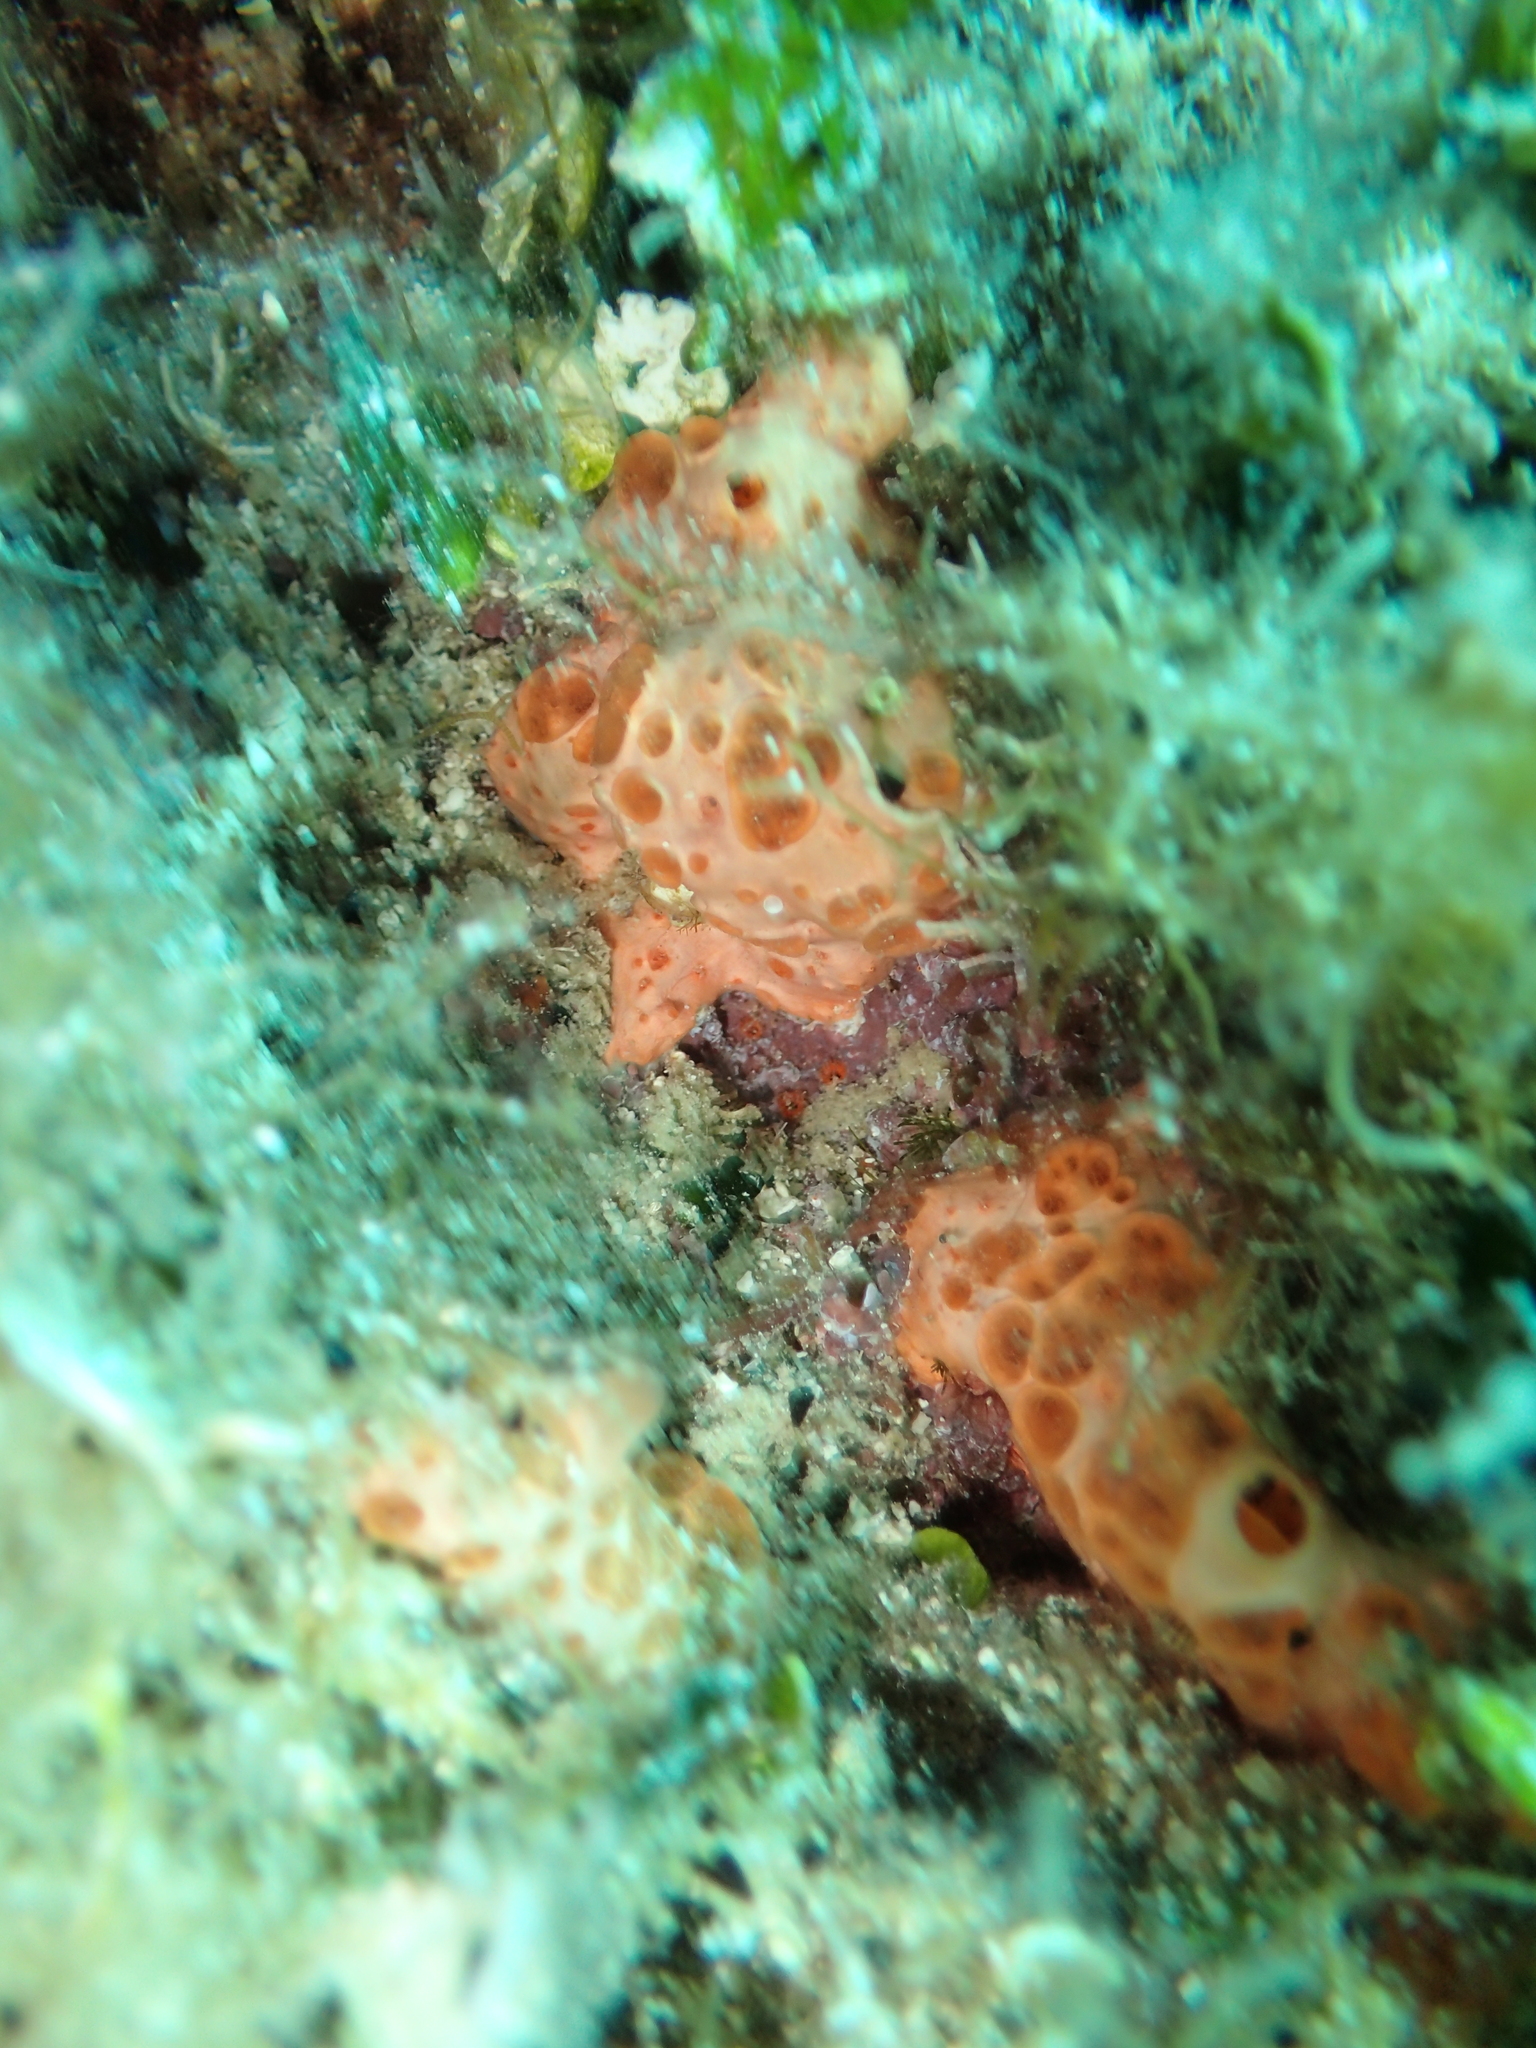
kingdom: Animalia
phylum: Porifera
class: Demospongiae
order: Poecilosclerida
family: Hymedesmiidae
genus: Hemimycale
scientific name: Hemimycale columella
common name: Crater sponge
